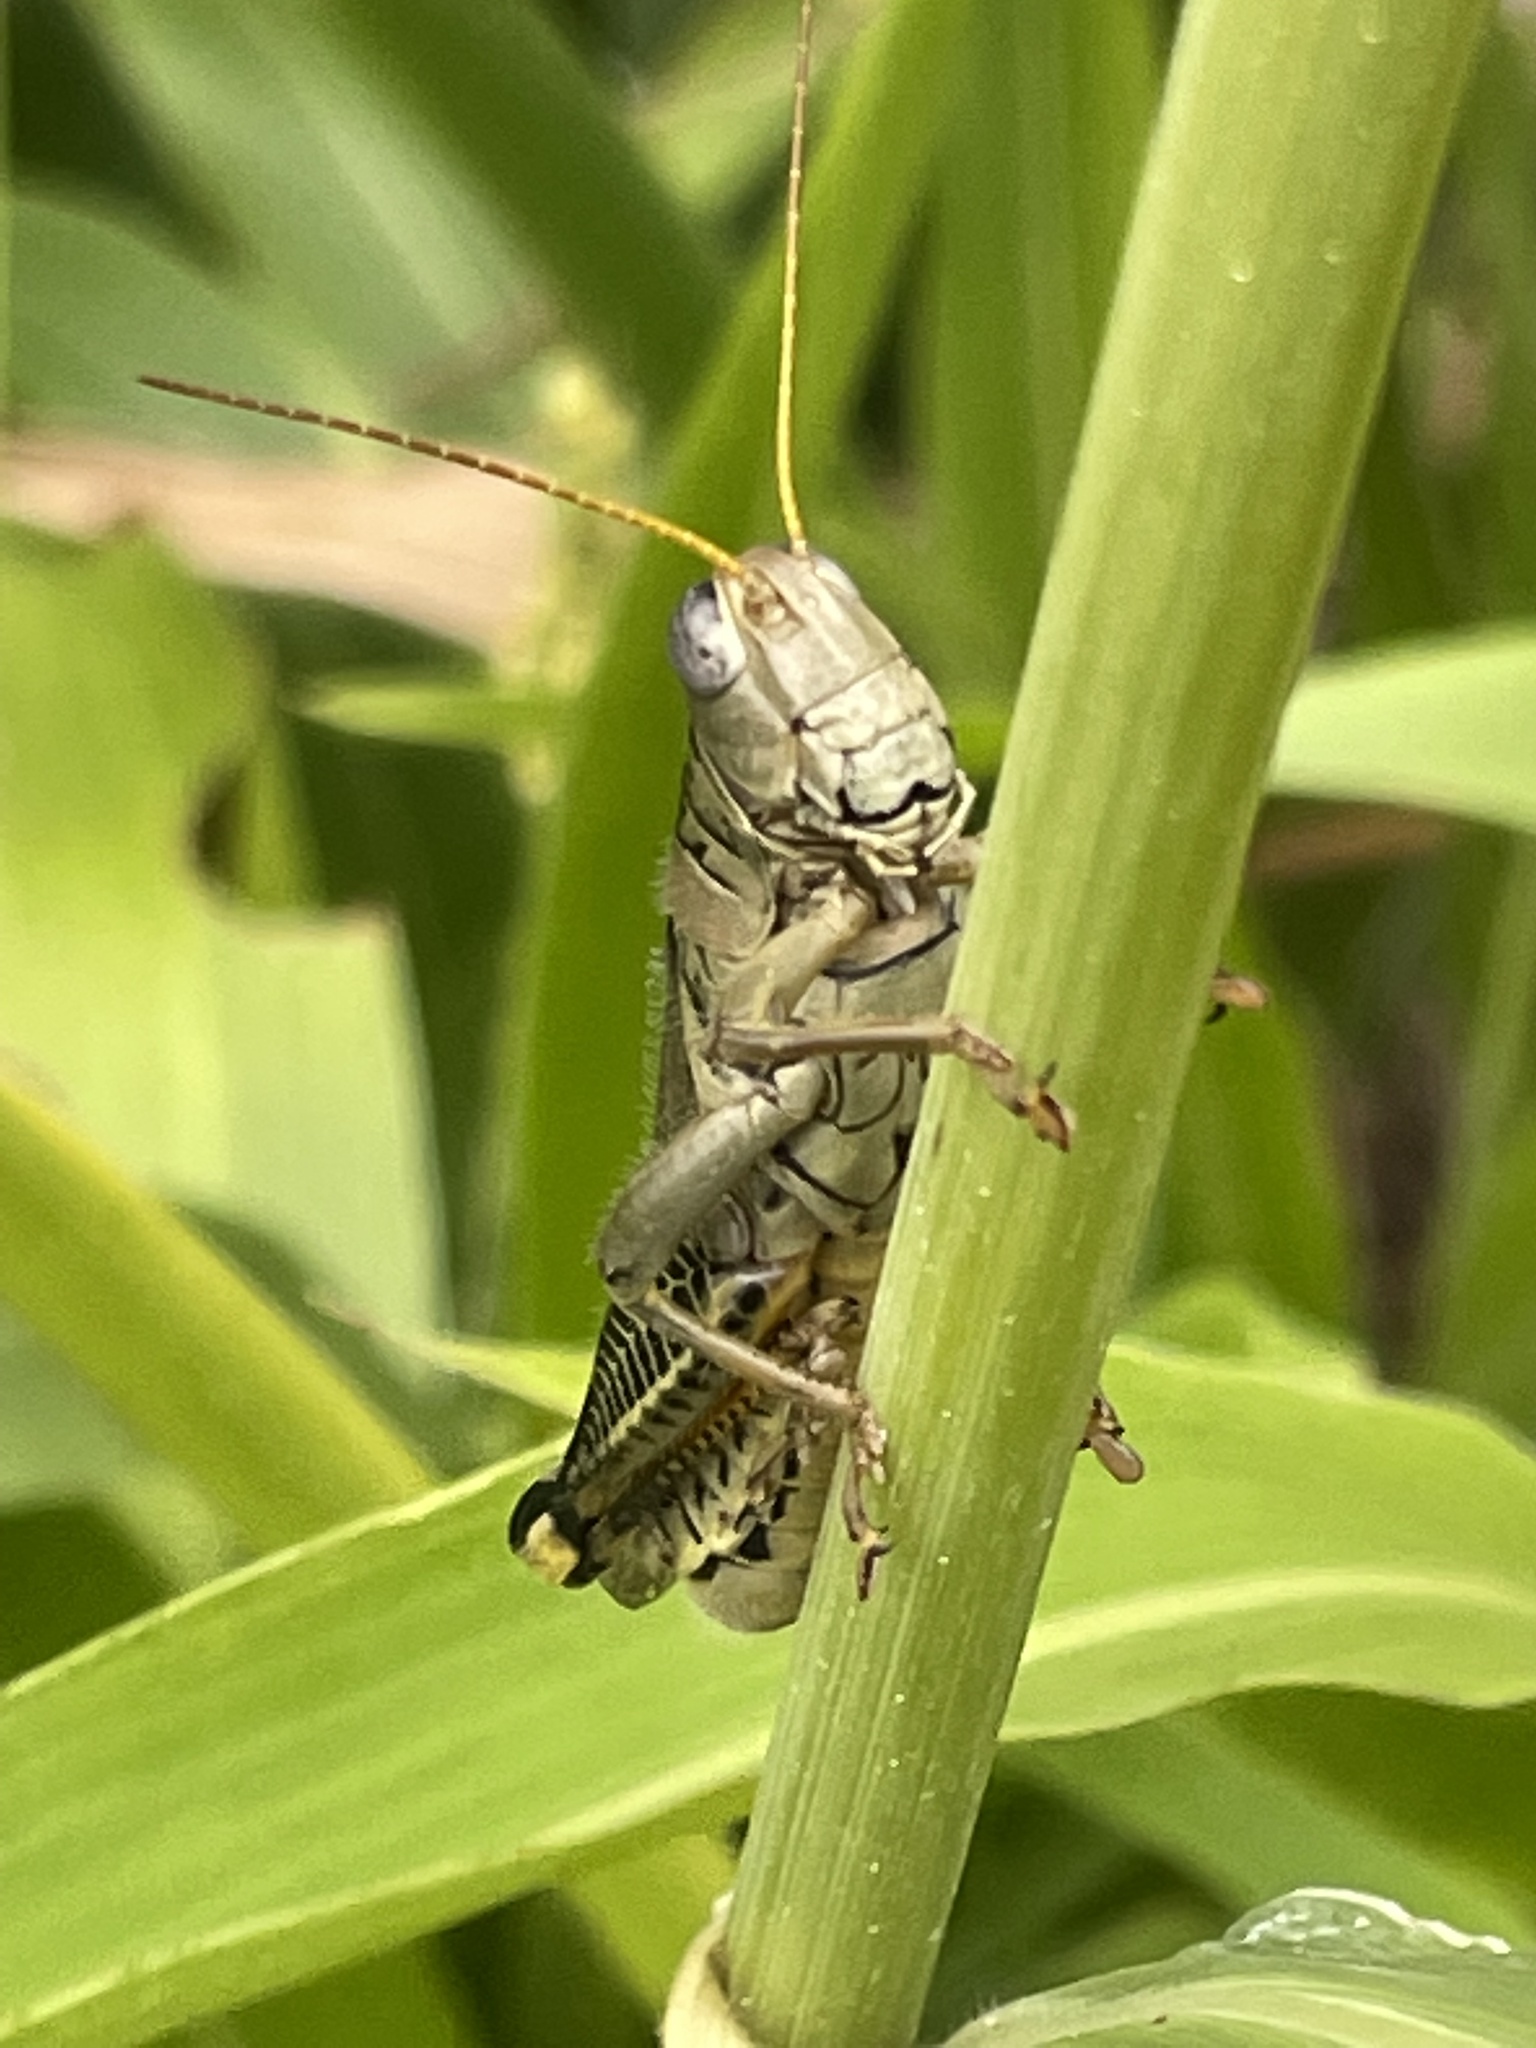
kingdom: Animalia
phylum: Arthropoda
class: Insecta
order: Orthoptera
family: Acrididae
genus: Melanoplus
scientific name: Melanoplus differentialis
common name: Differential grasshopper
